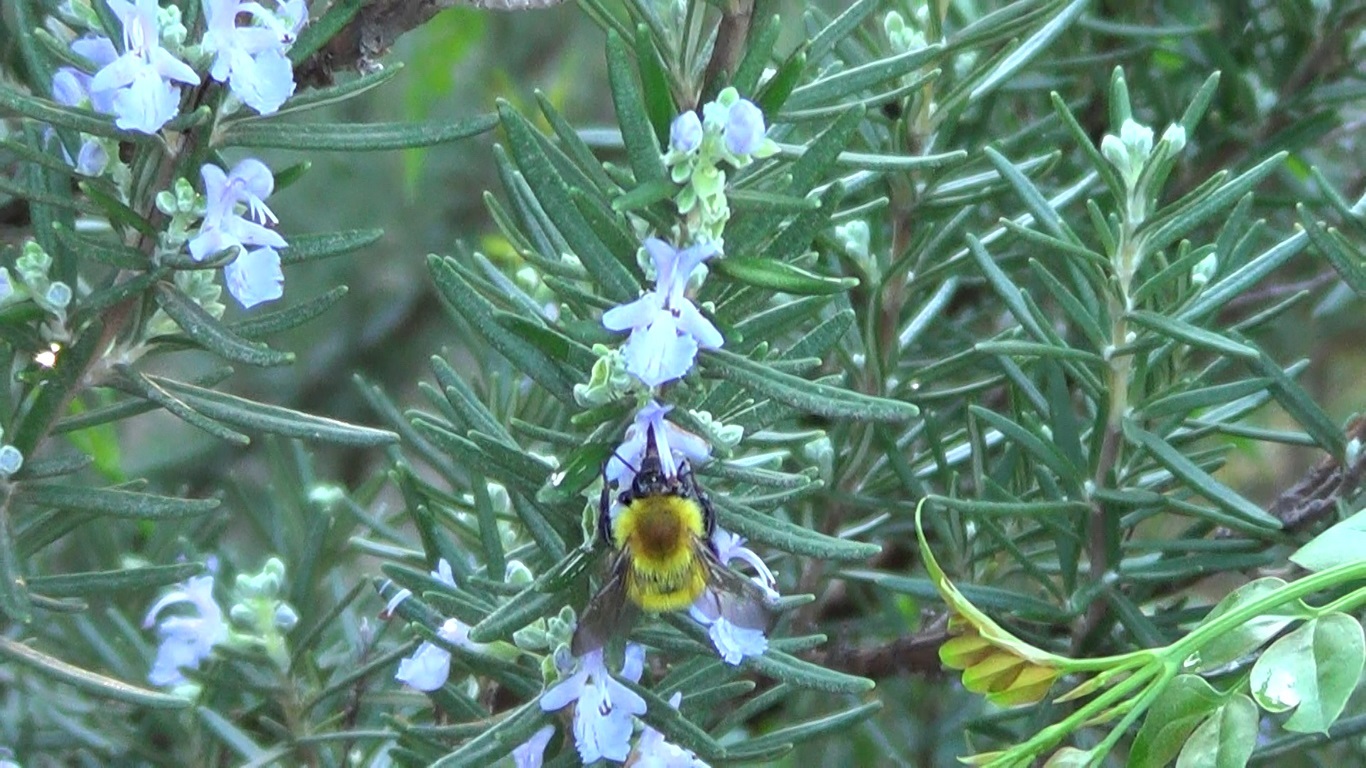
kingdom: Animalia
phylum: Arthropoda
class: Insecta
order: Hymenoptera
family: Apidae
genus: Bombus
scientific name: Bombus pascuorum
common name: Common carder bee
